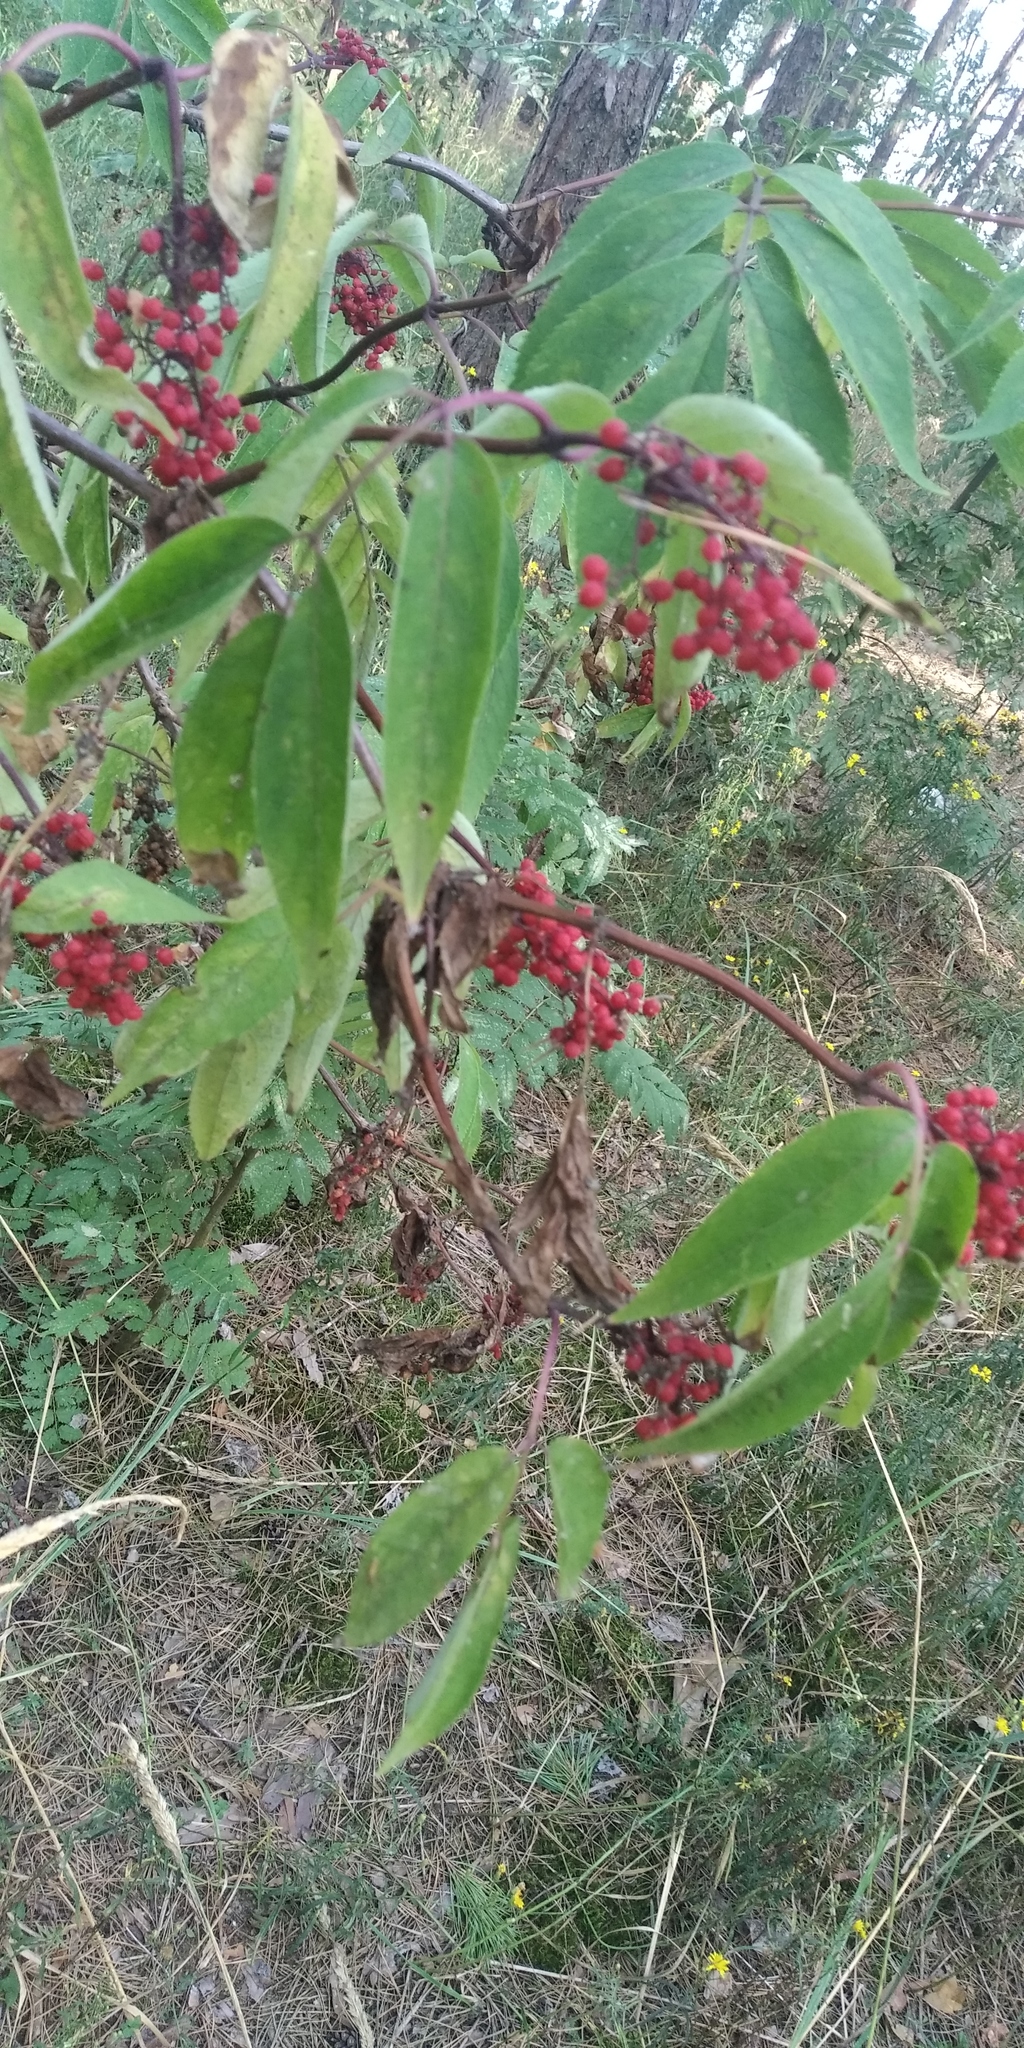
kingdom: Plantae
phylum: Tracheophyta
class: Magnoliopsida
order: Dipsacales
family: Viburnaceae
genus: Sambucus
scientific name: Sambucus racemosa
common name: Red-berried elder
